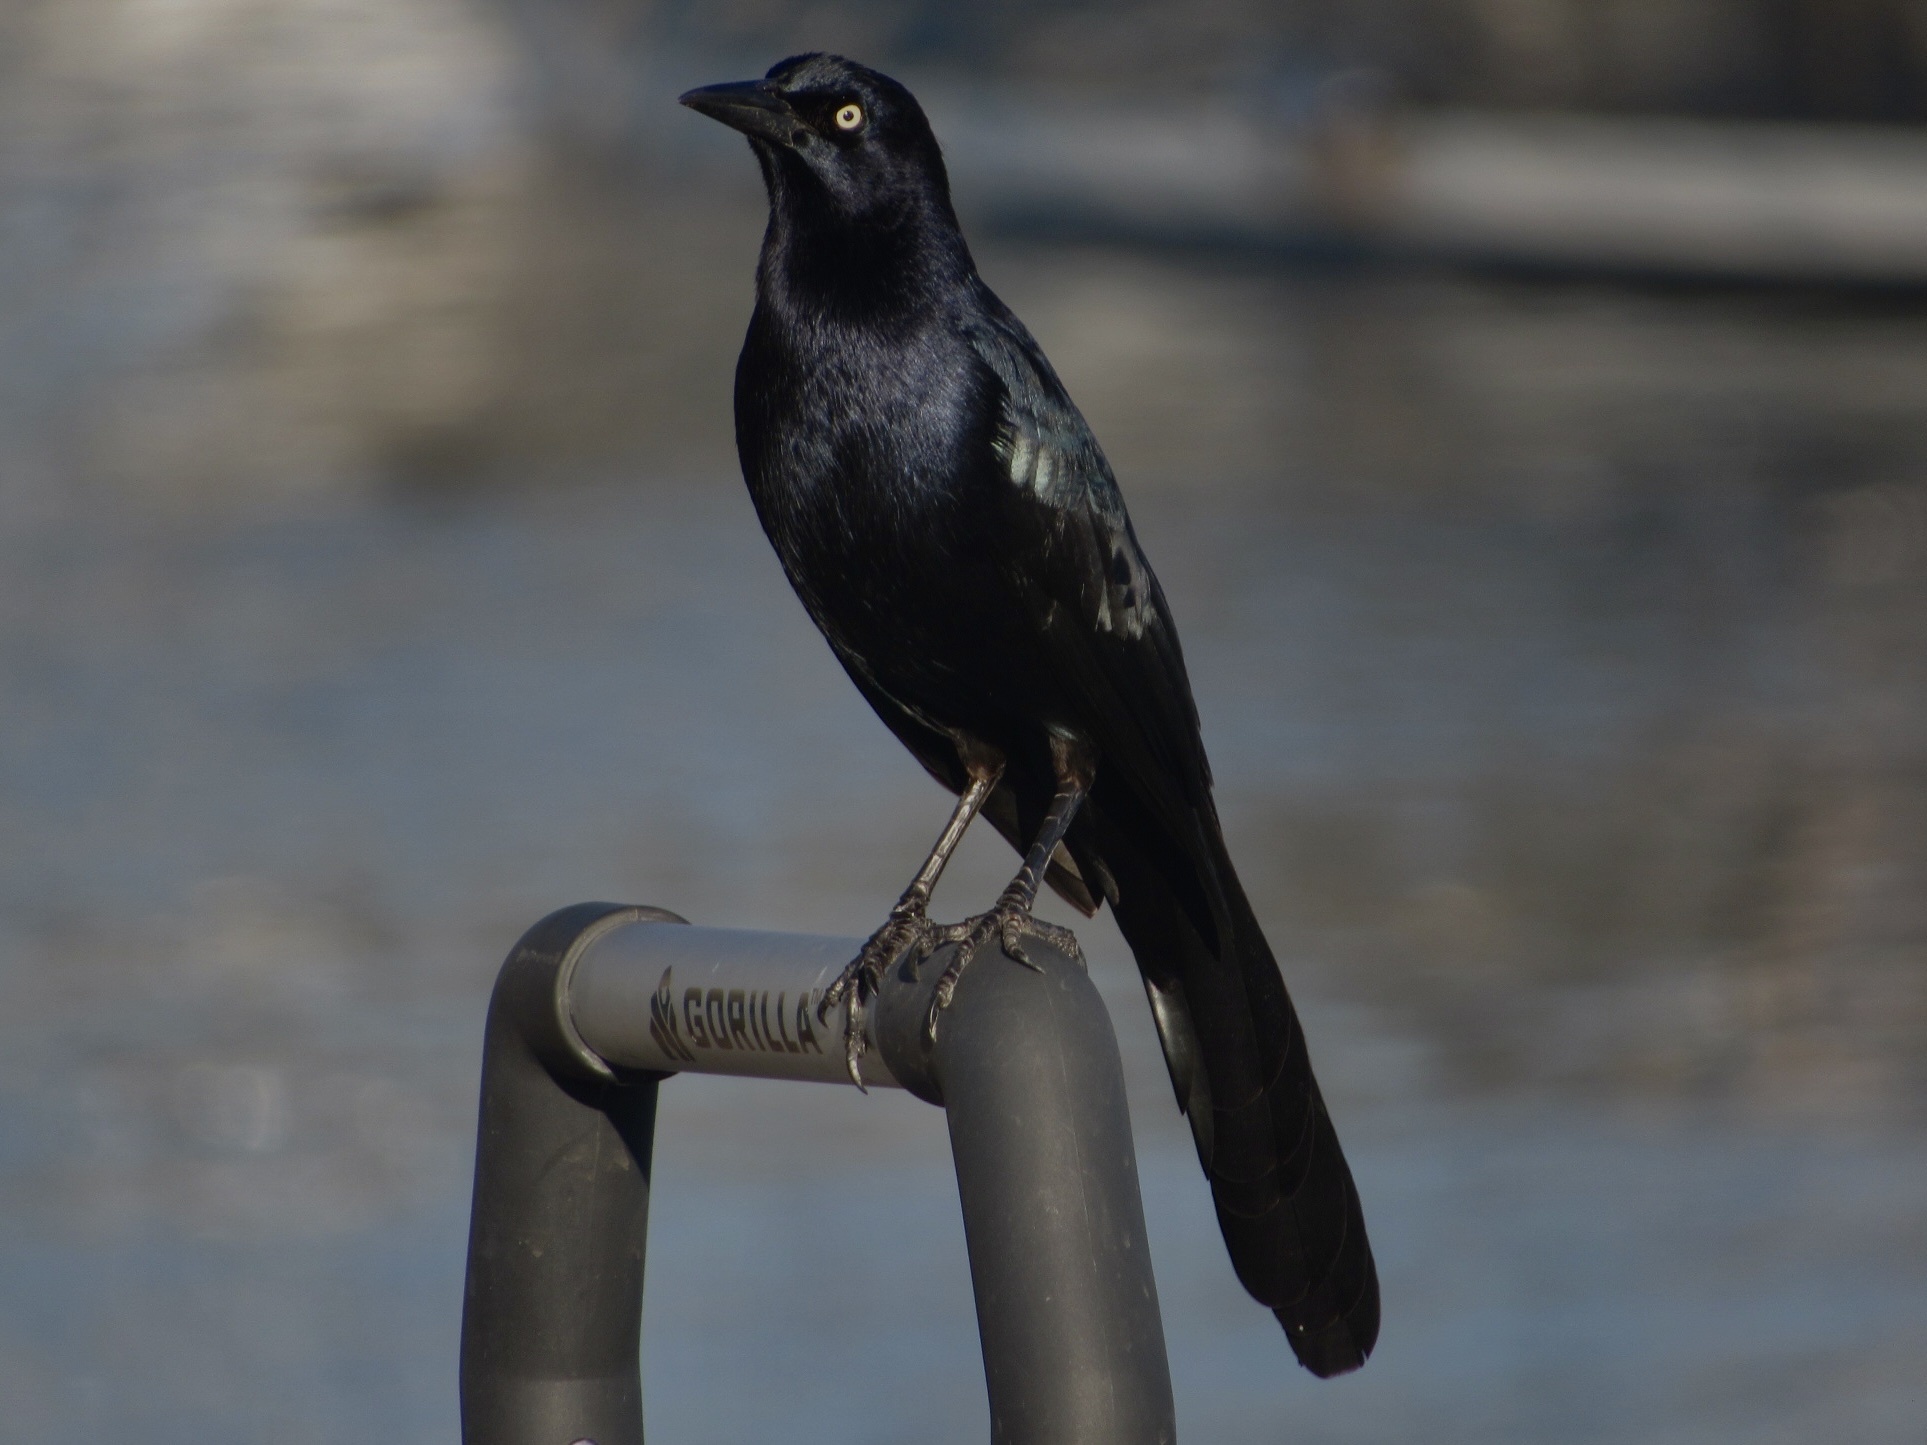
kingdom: Animalia
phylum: Chordata
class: Aves
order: Passeriformes
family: Icteridae
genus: Quiscalus
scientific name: Quiscalus mexicanus
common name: Great-tailed grackle
